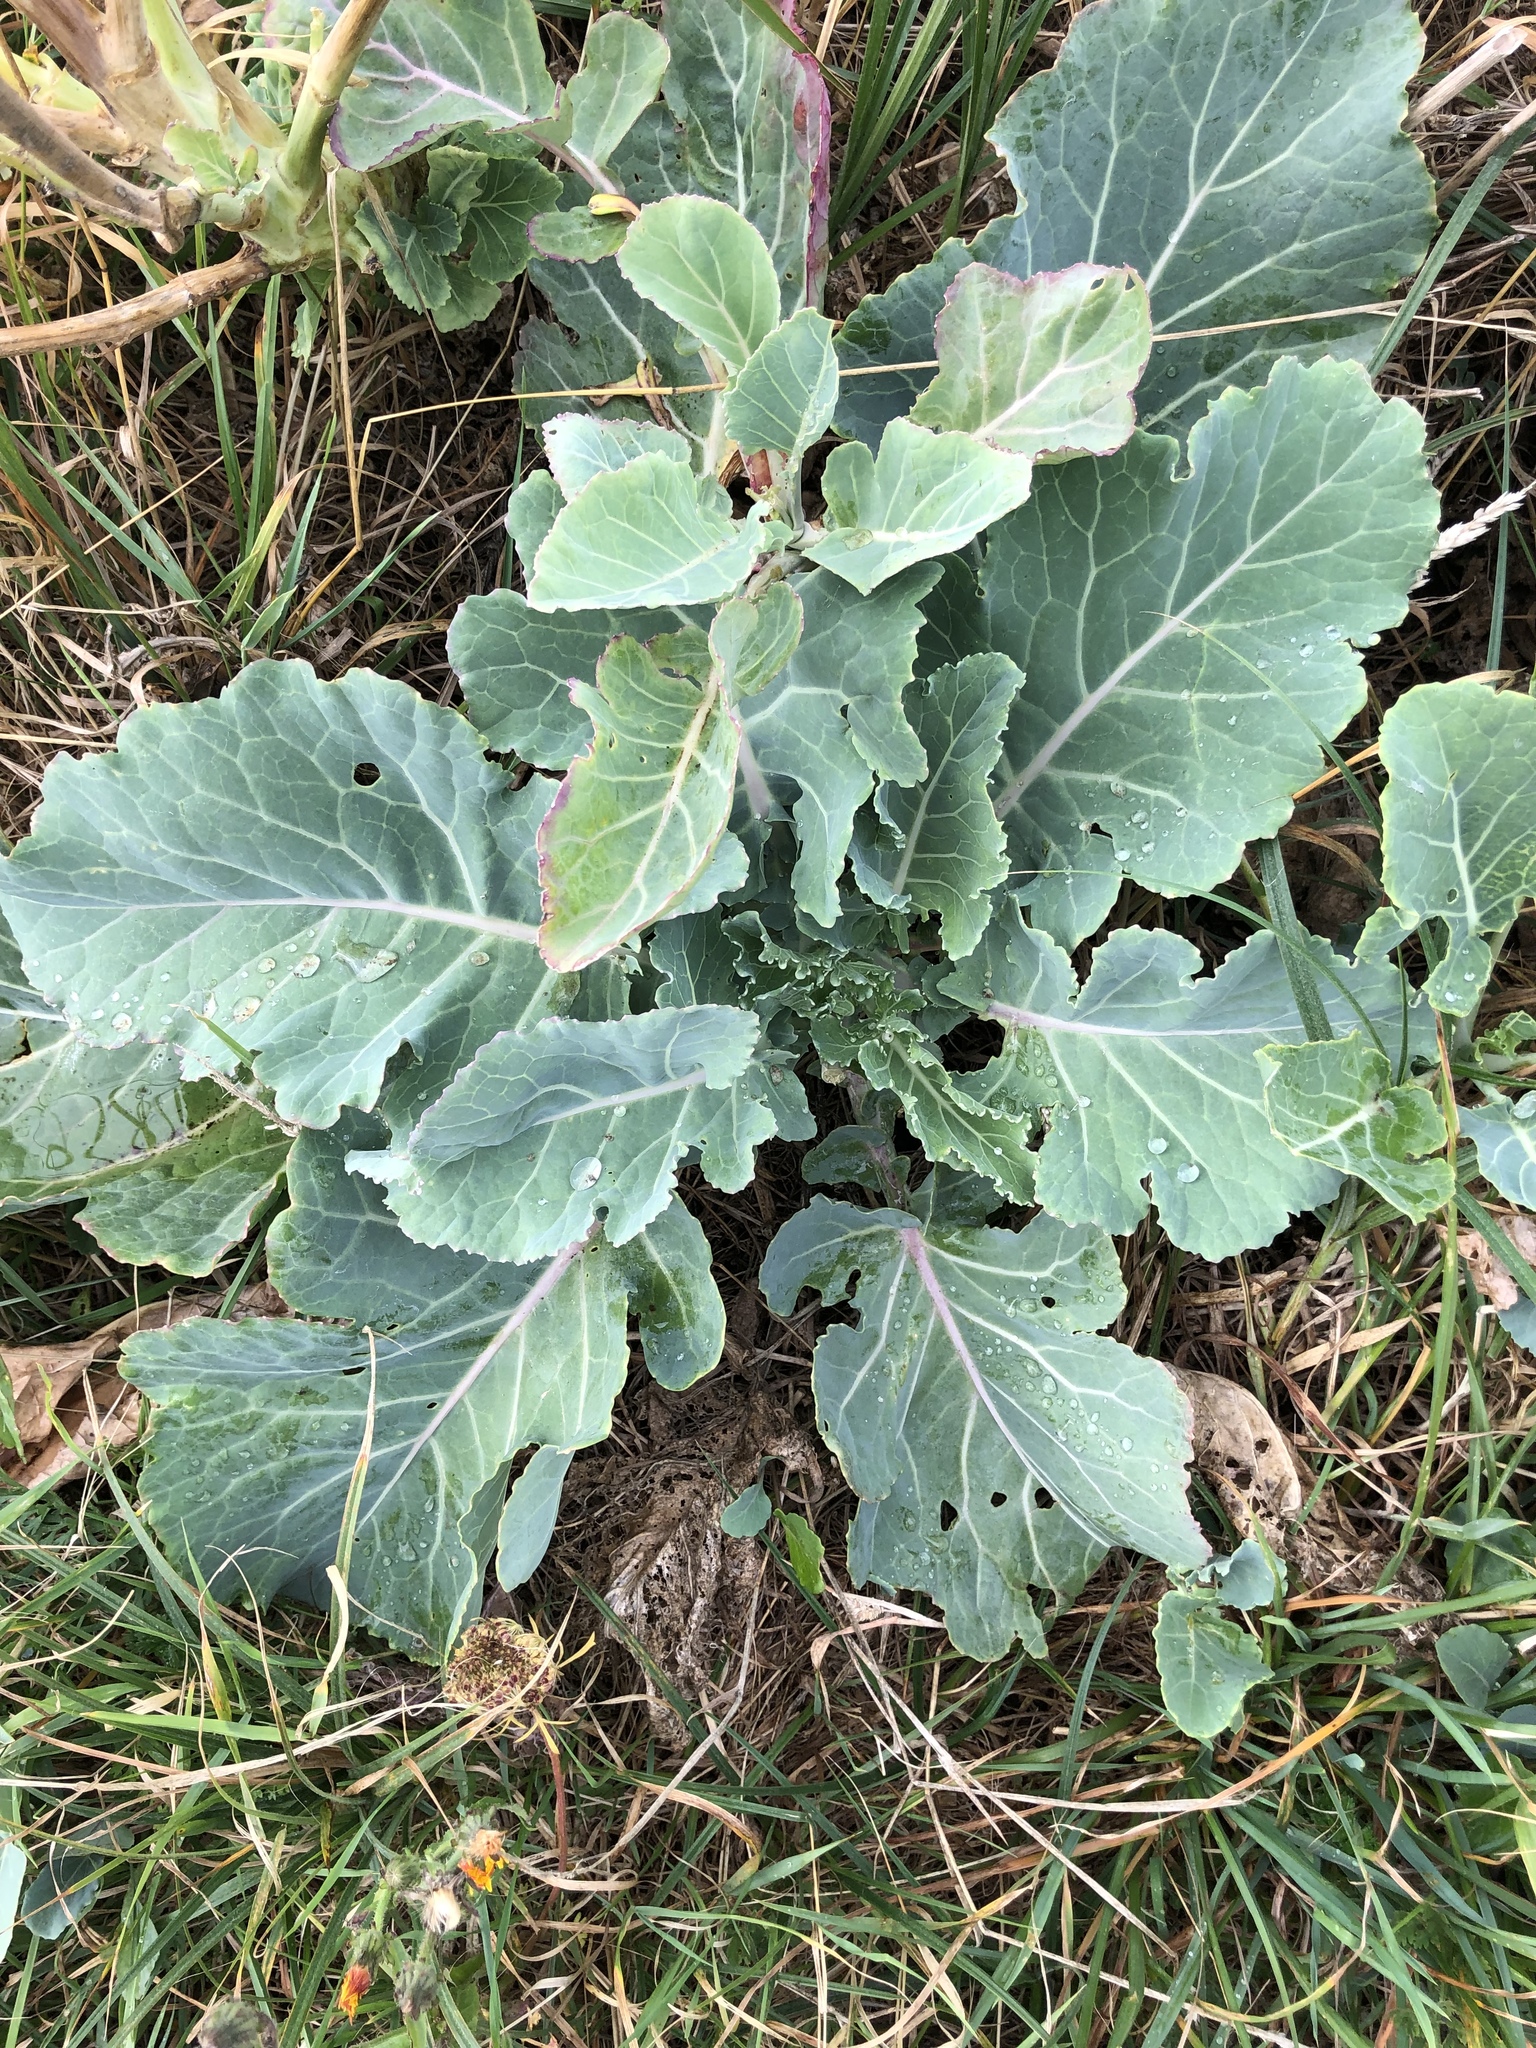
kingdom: Plantae
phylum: Tracheophyta
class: Magnoliopsida
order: Brassicales
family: Brassicaceae
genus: Crambe
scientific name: Crambe maritima
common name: Sea-kale
